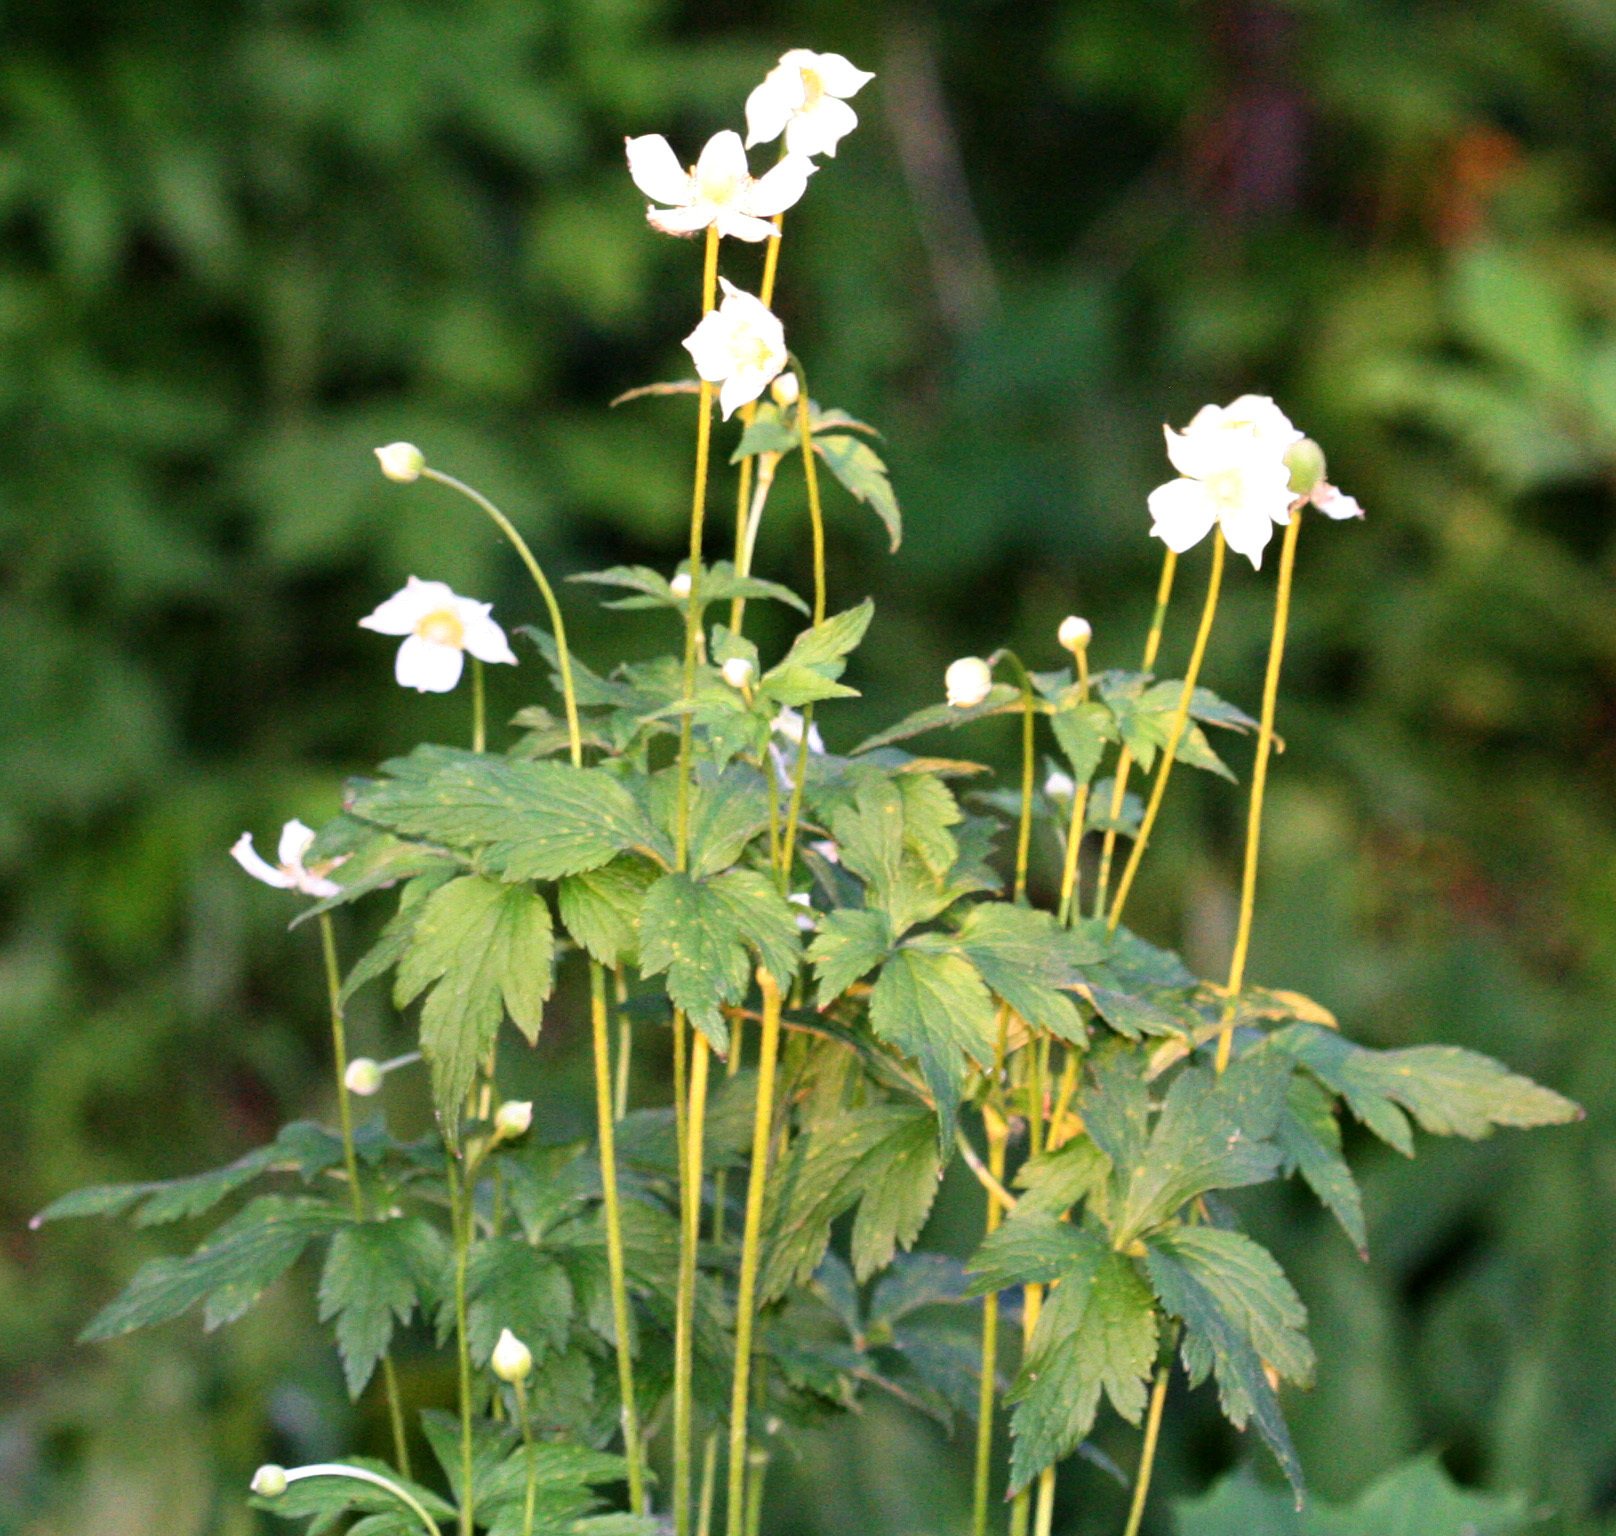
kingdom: Plantae
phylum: Tracheophyta
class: Magnoliopsida
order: Ranunculales
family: Ranunculaceae
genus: Anemone
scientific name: Anemone virginiana
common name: Tall anemone
